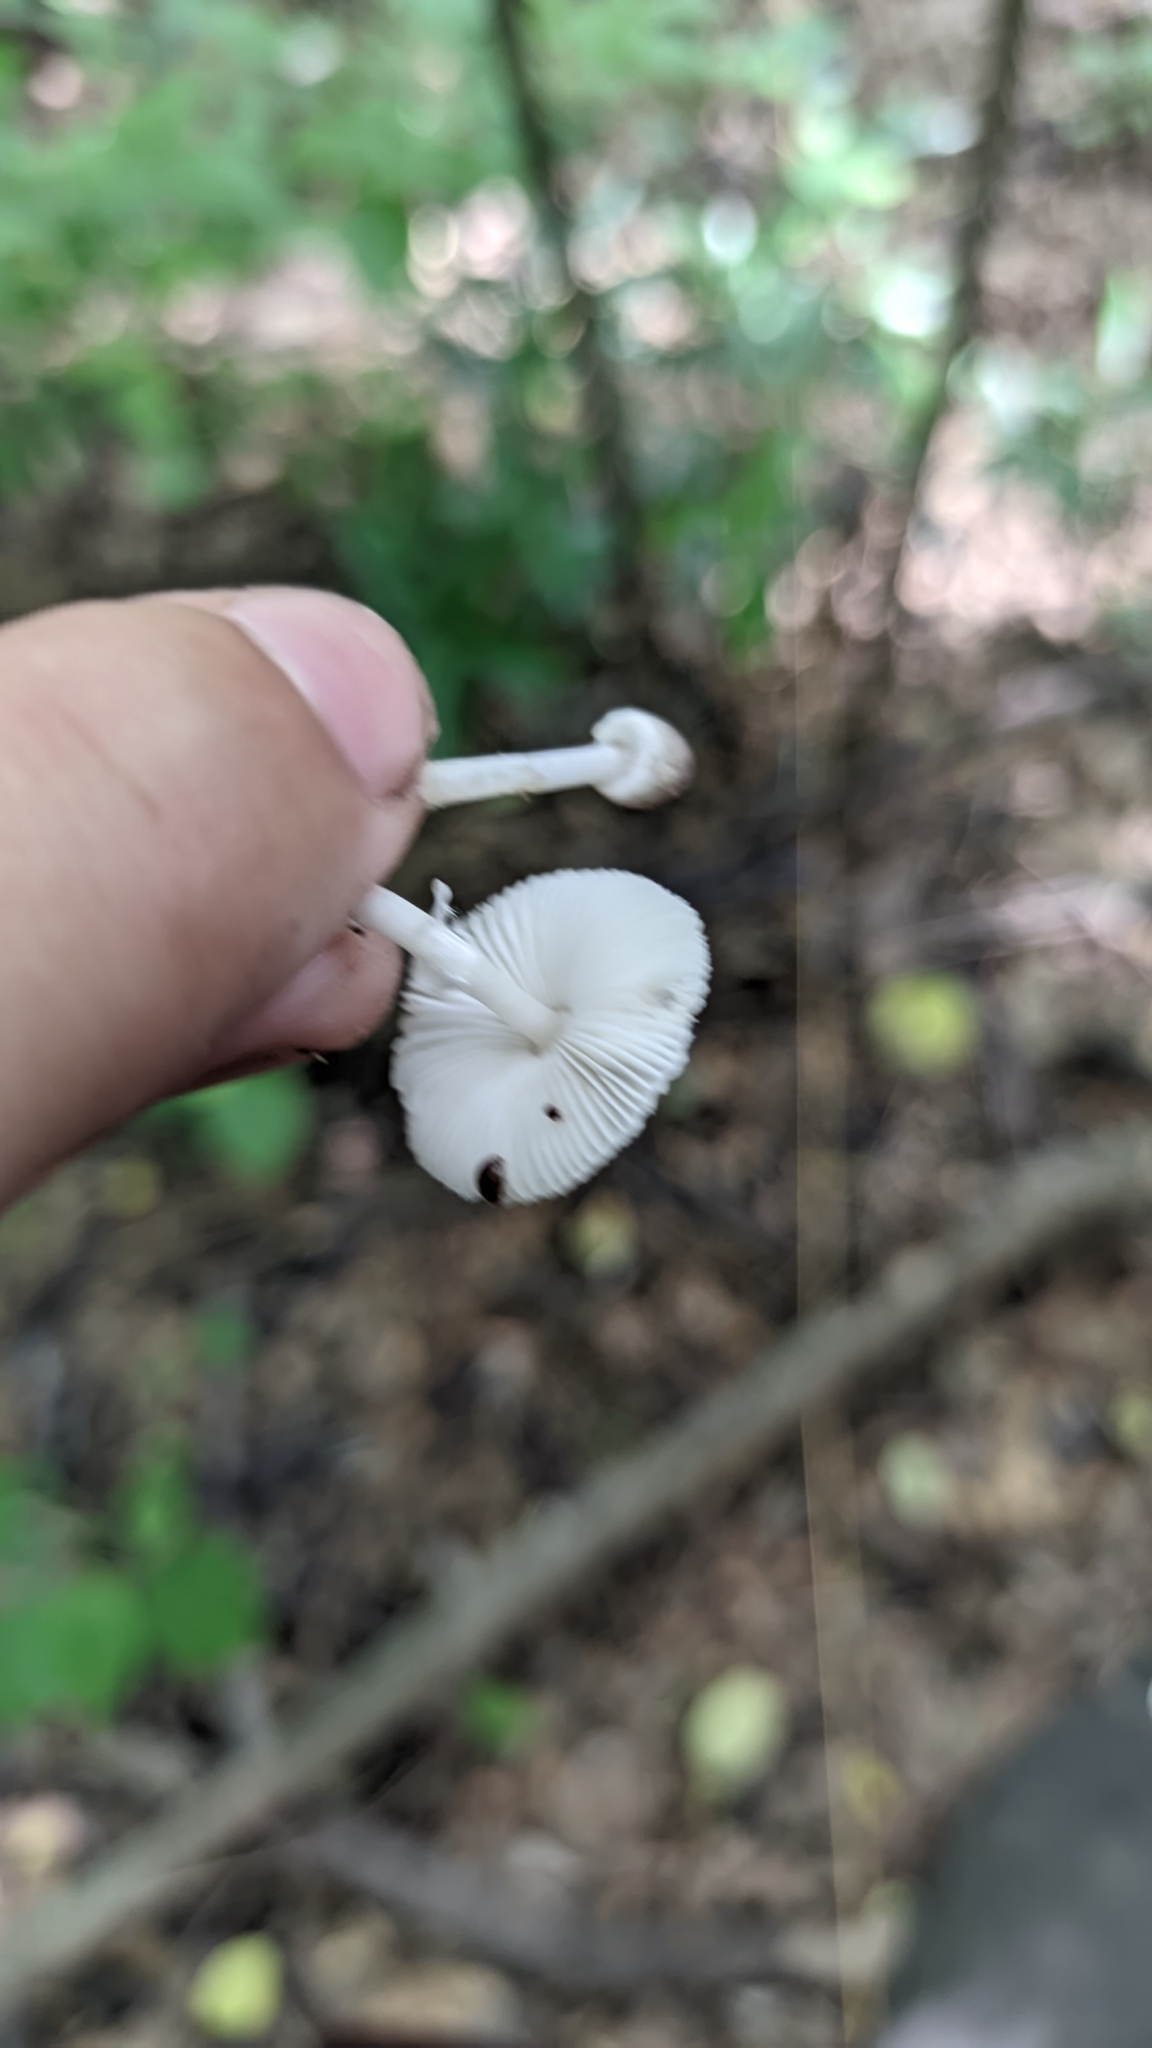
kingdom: Fungi
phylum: Basidiomycota
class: Agaricomycetes
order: Agaricales
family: Agaricaceae
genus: Leucocoprinus
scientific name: Leucocoprinus brebissonii
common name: Skullcap dapperling
